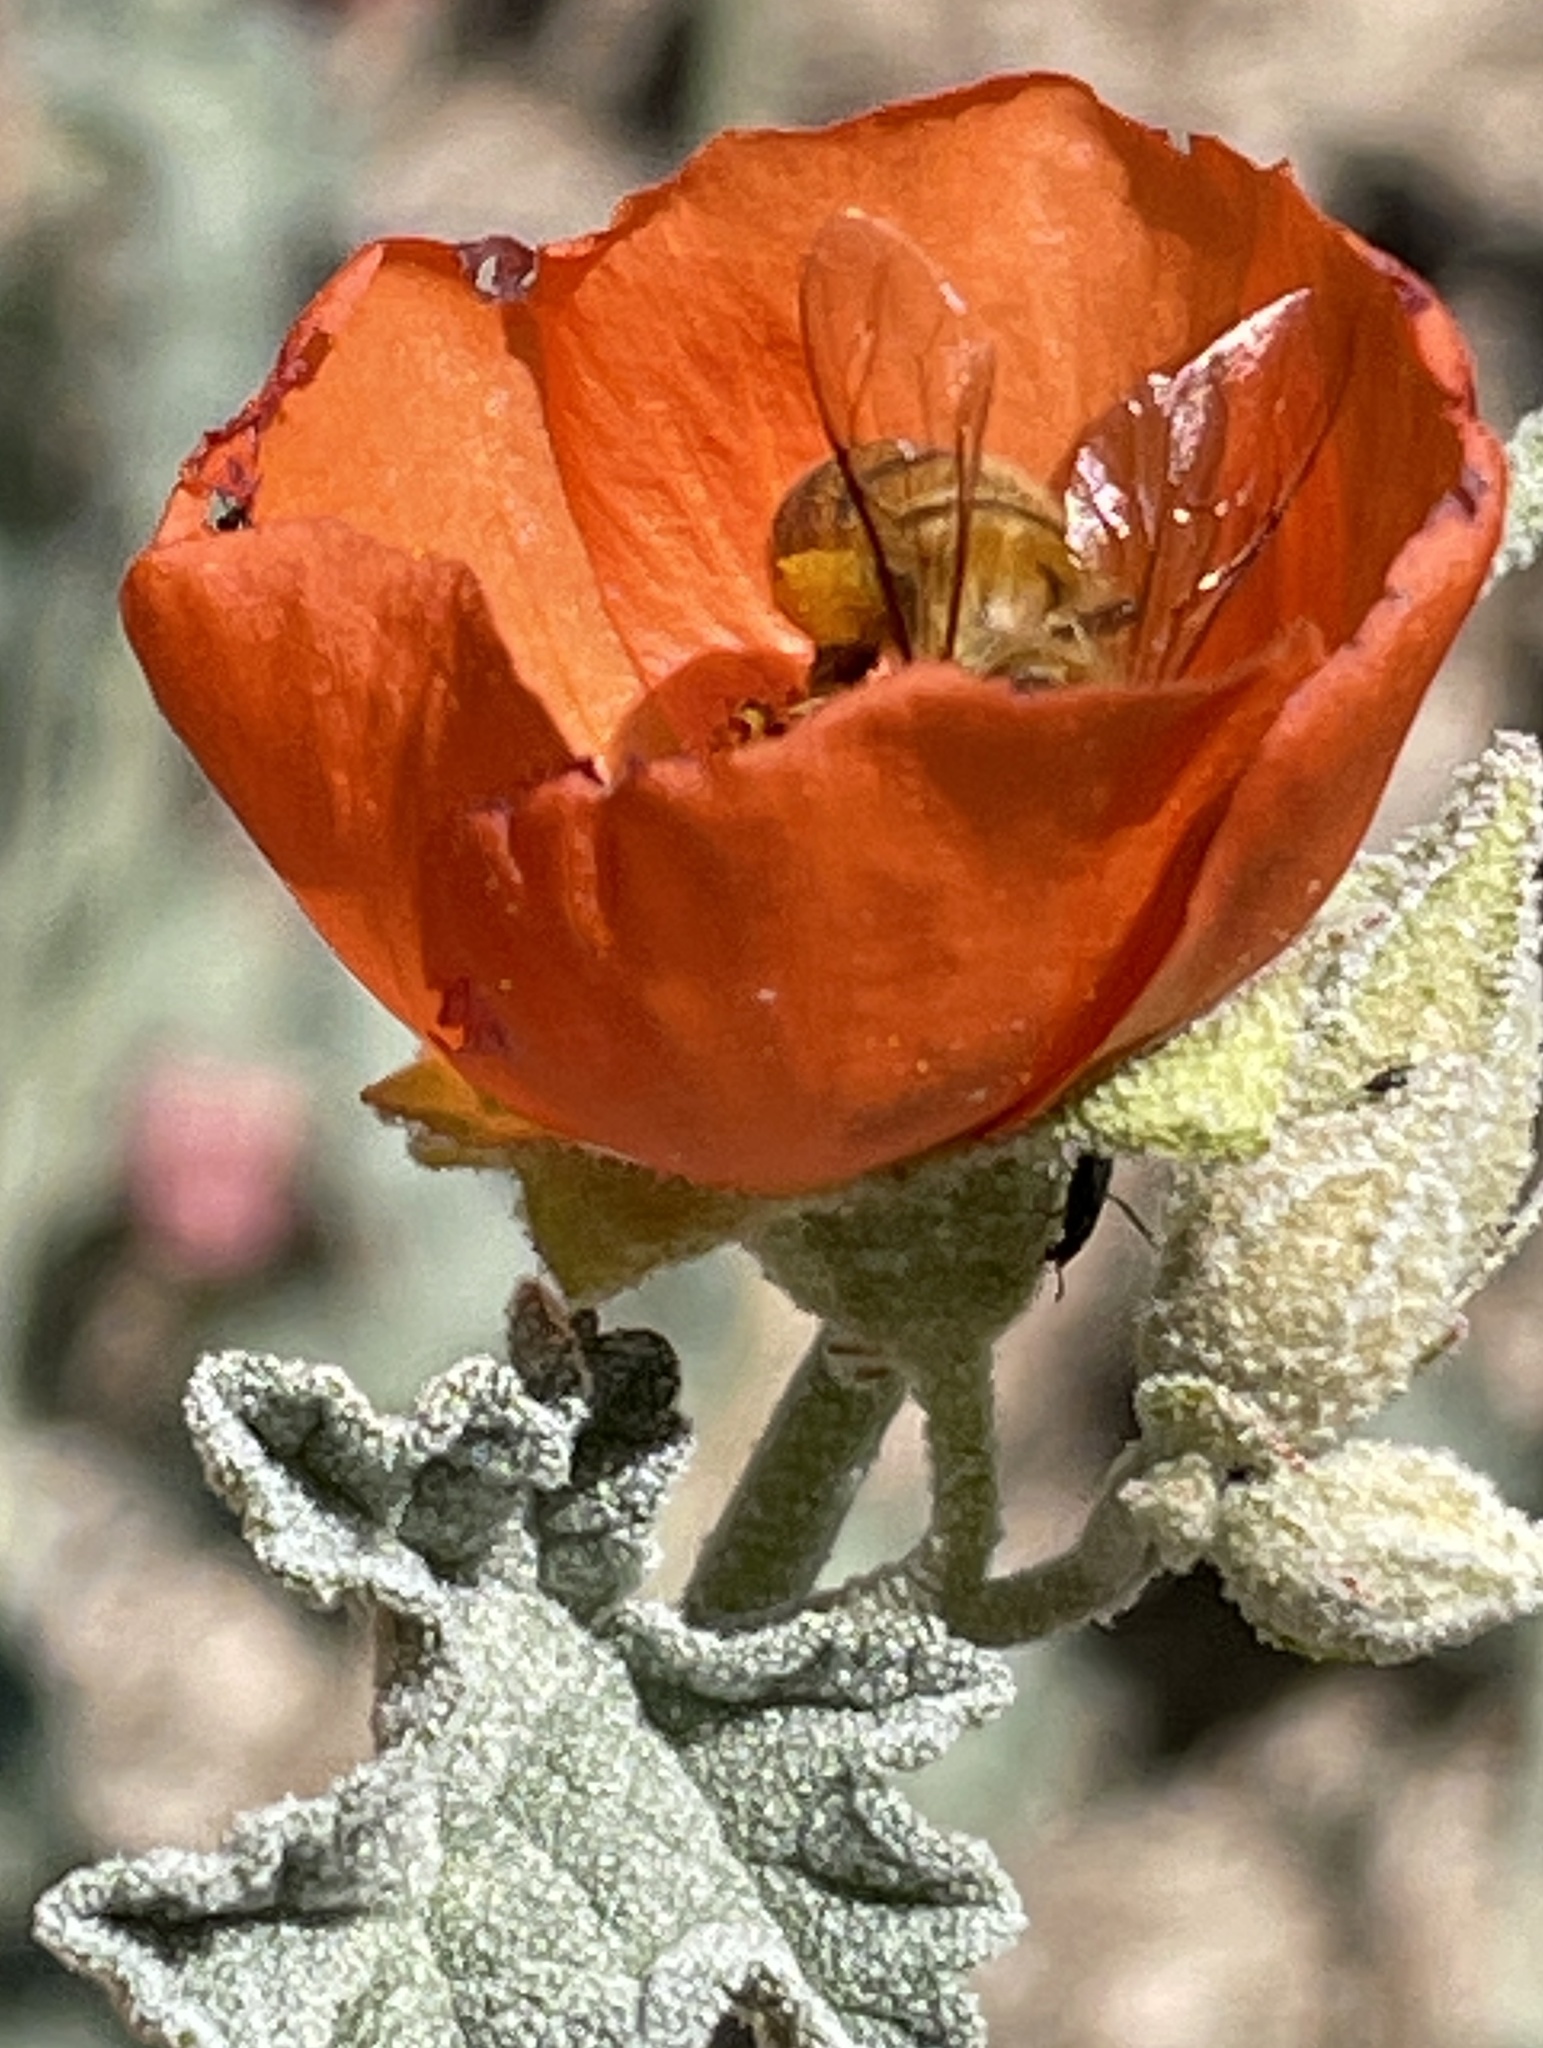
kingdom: Animalia
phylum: Arthropoda
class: Insecta
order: Hymenoptera
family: Apidae
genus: Apis
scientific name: Apis mellifera
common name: Honey bee
